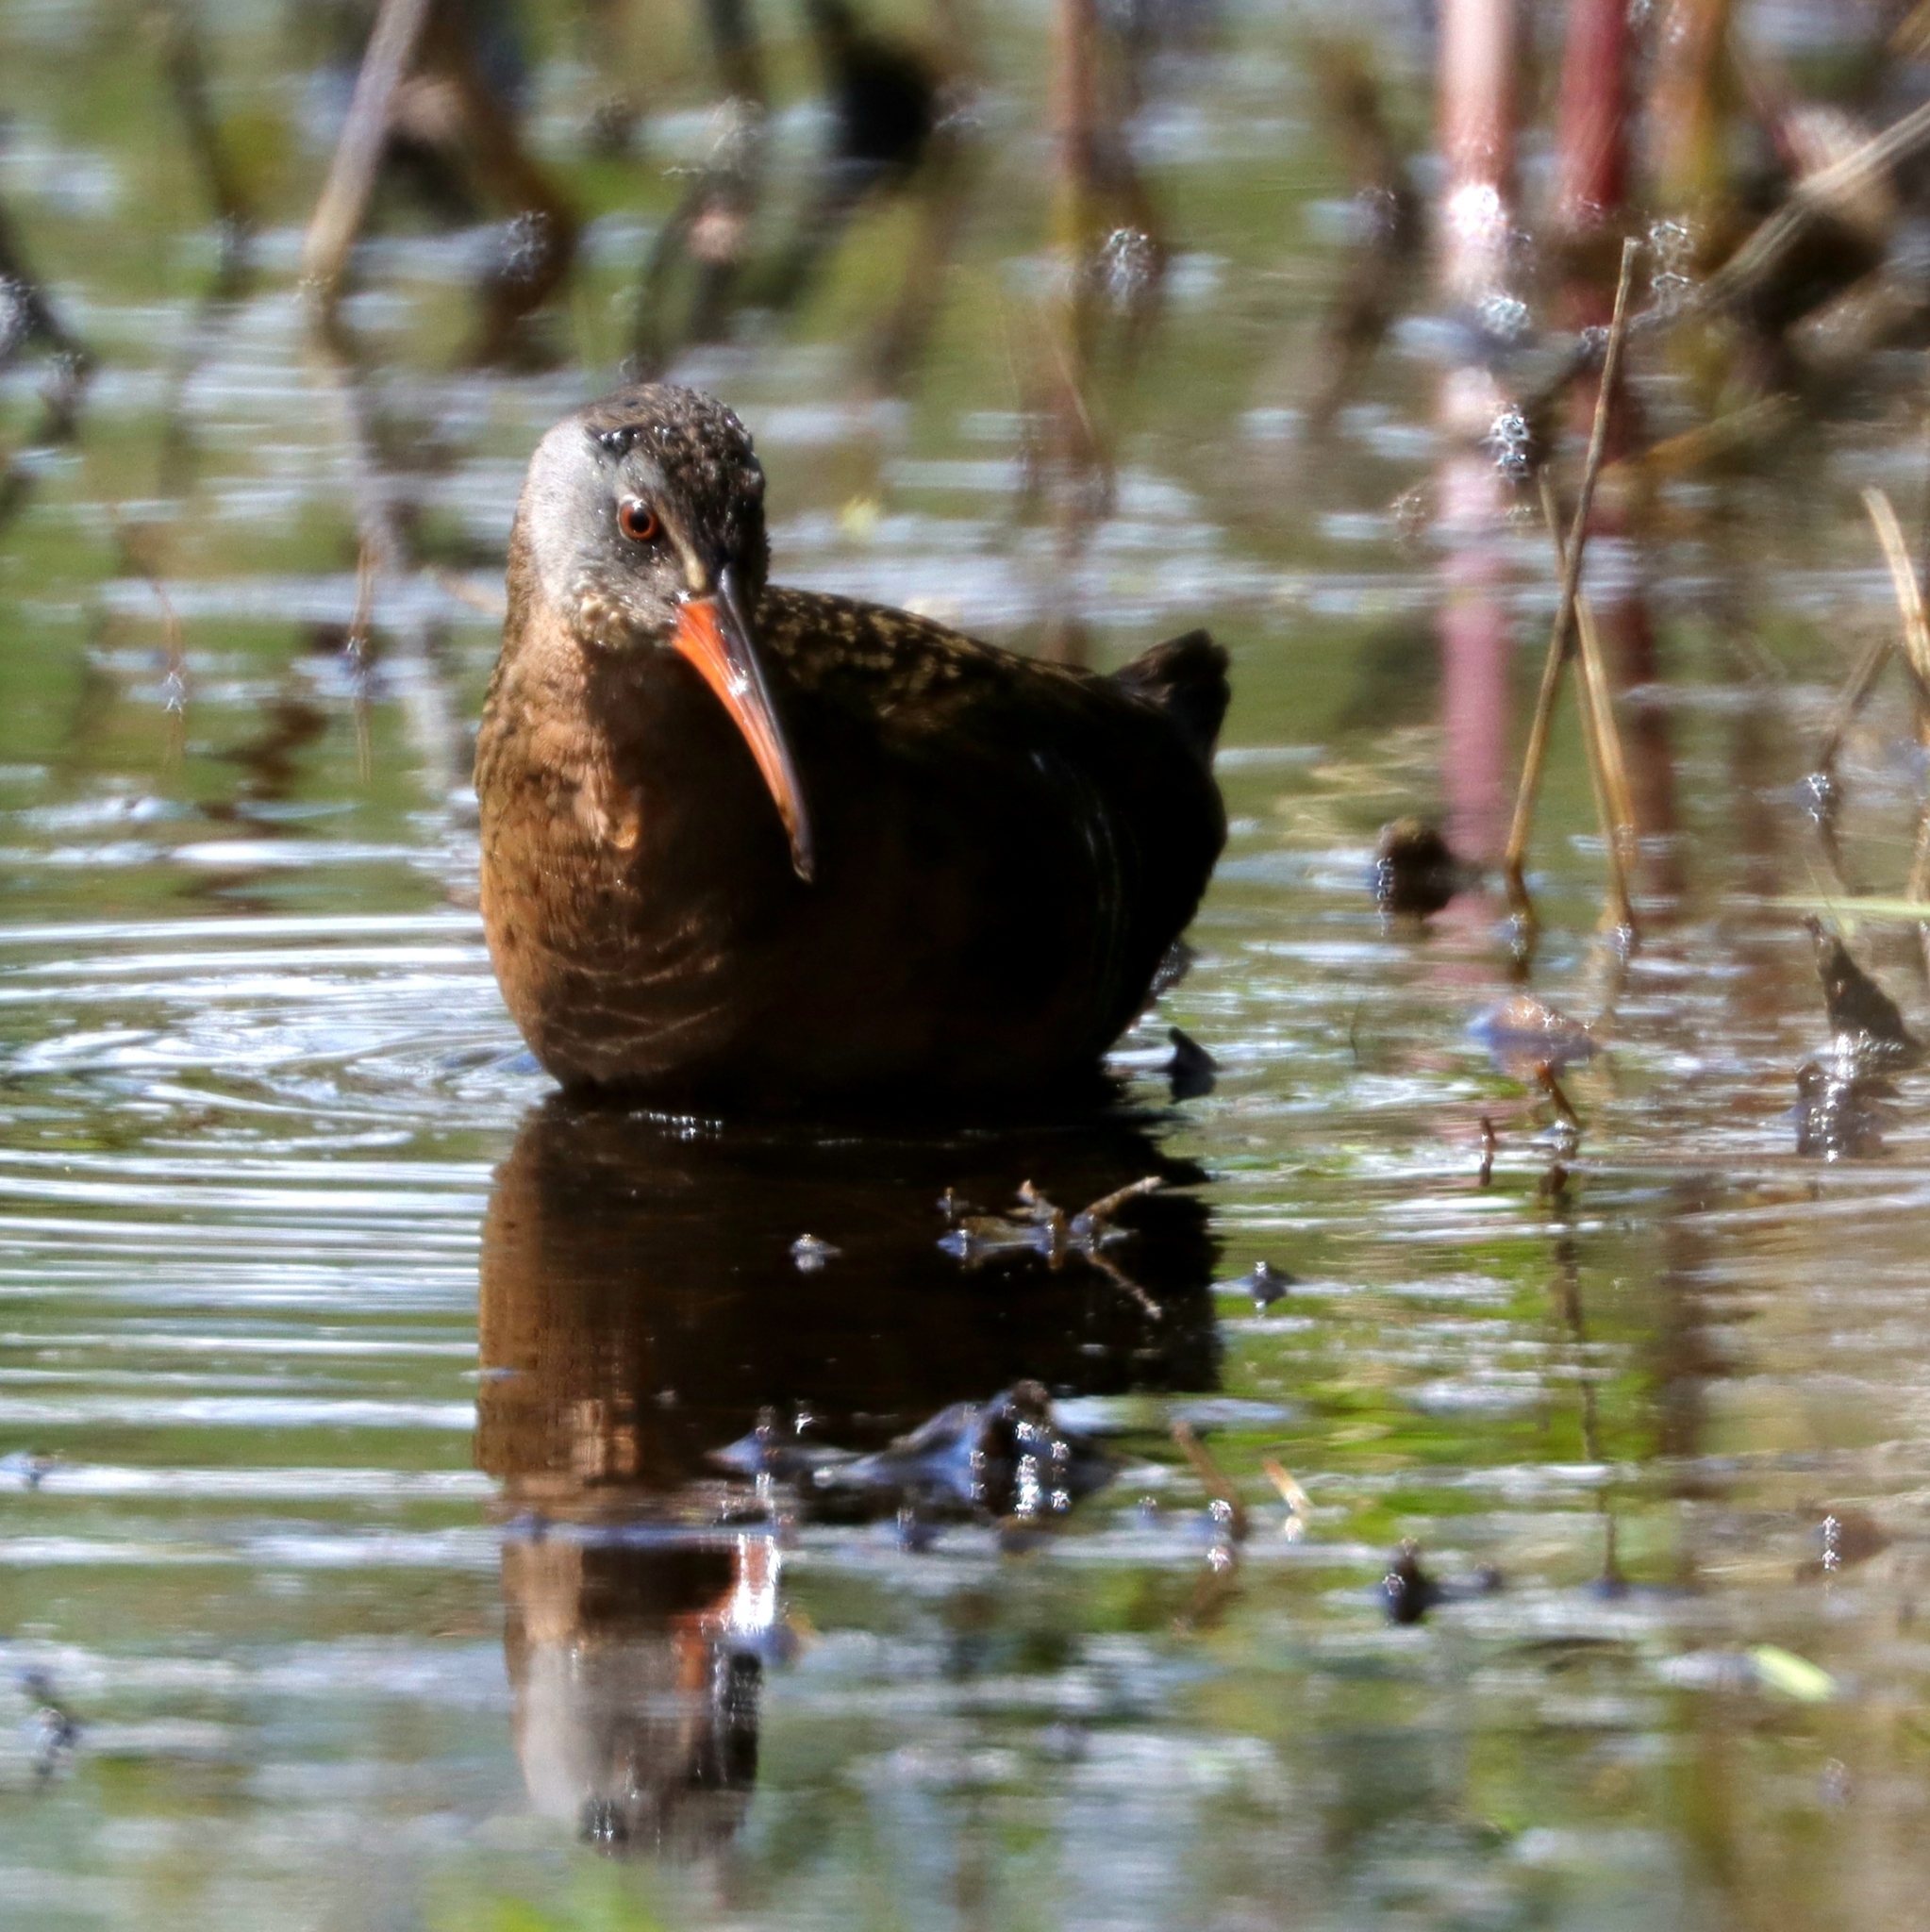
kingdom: Animalia
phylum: Chordata
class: Aves
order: Gruiformes
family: Rallidae
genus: Rallus
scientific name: Rallus limicola
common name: Virginia rail
